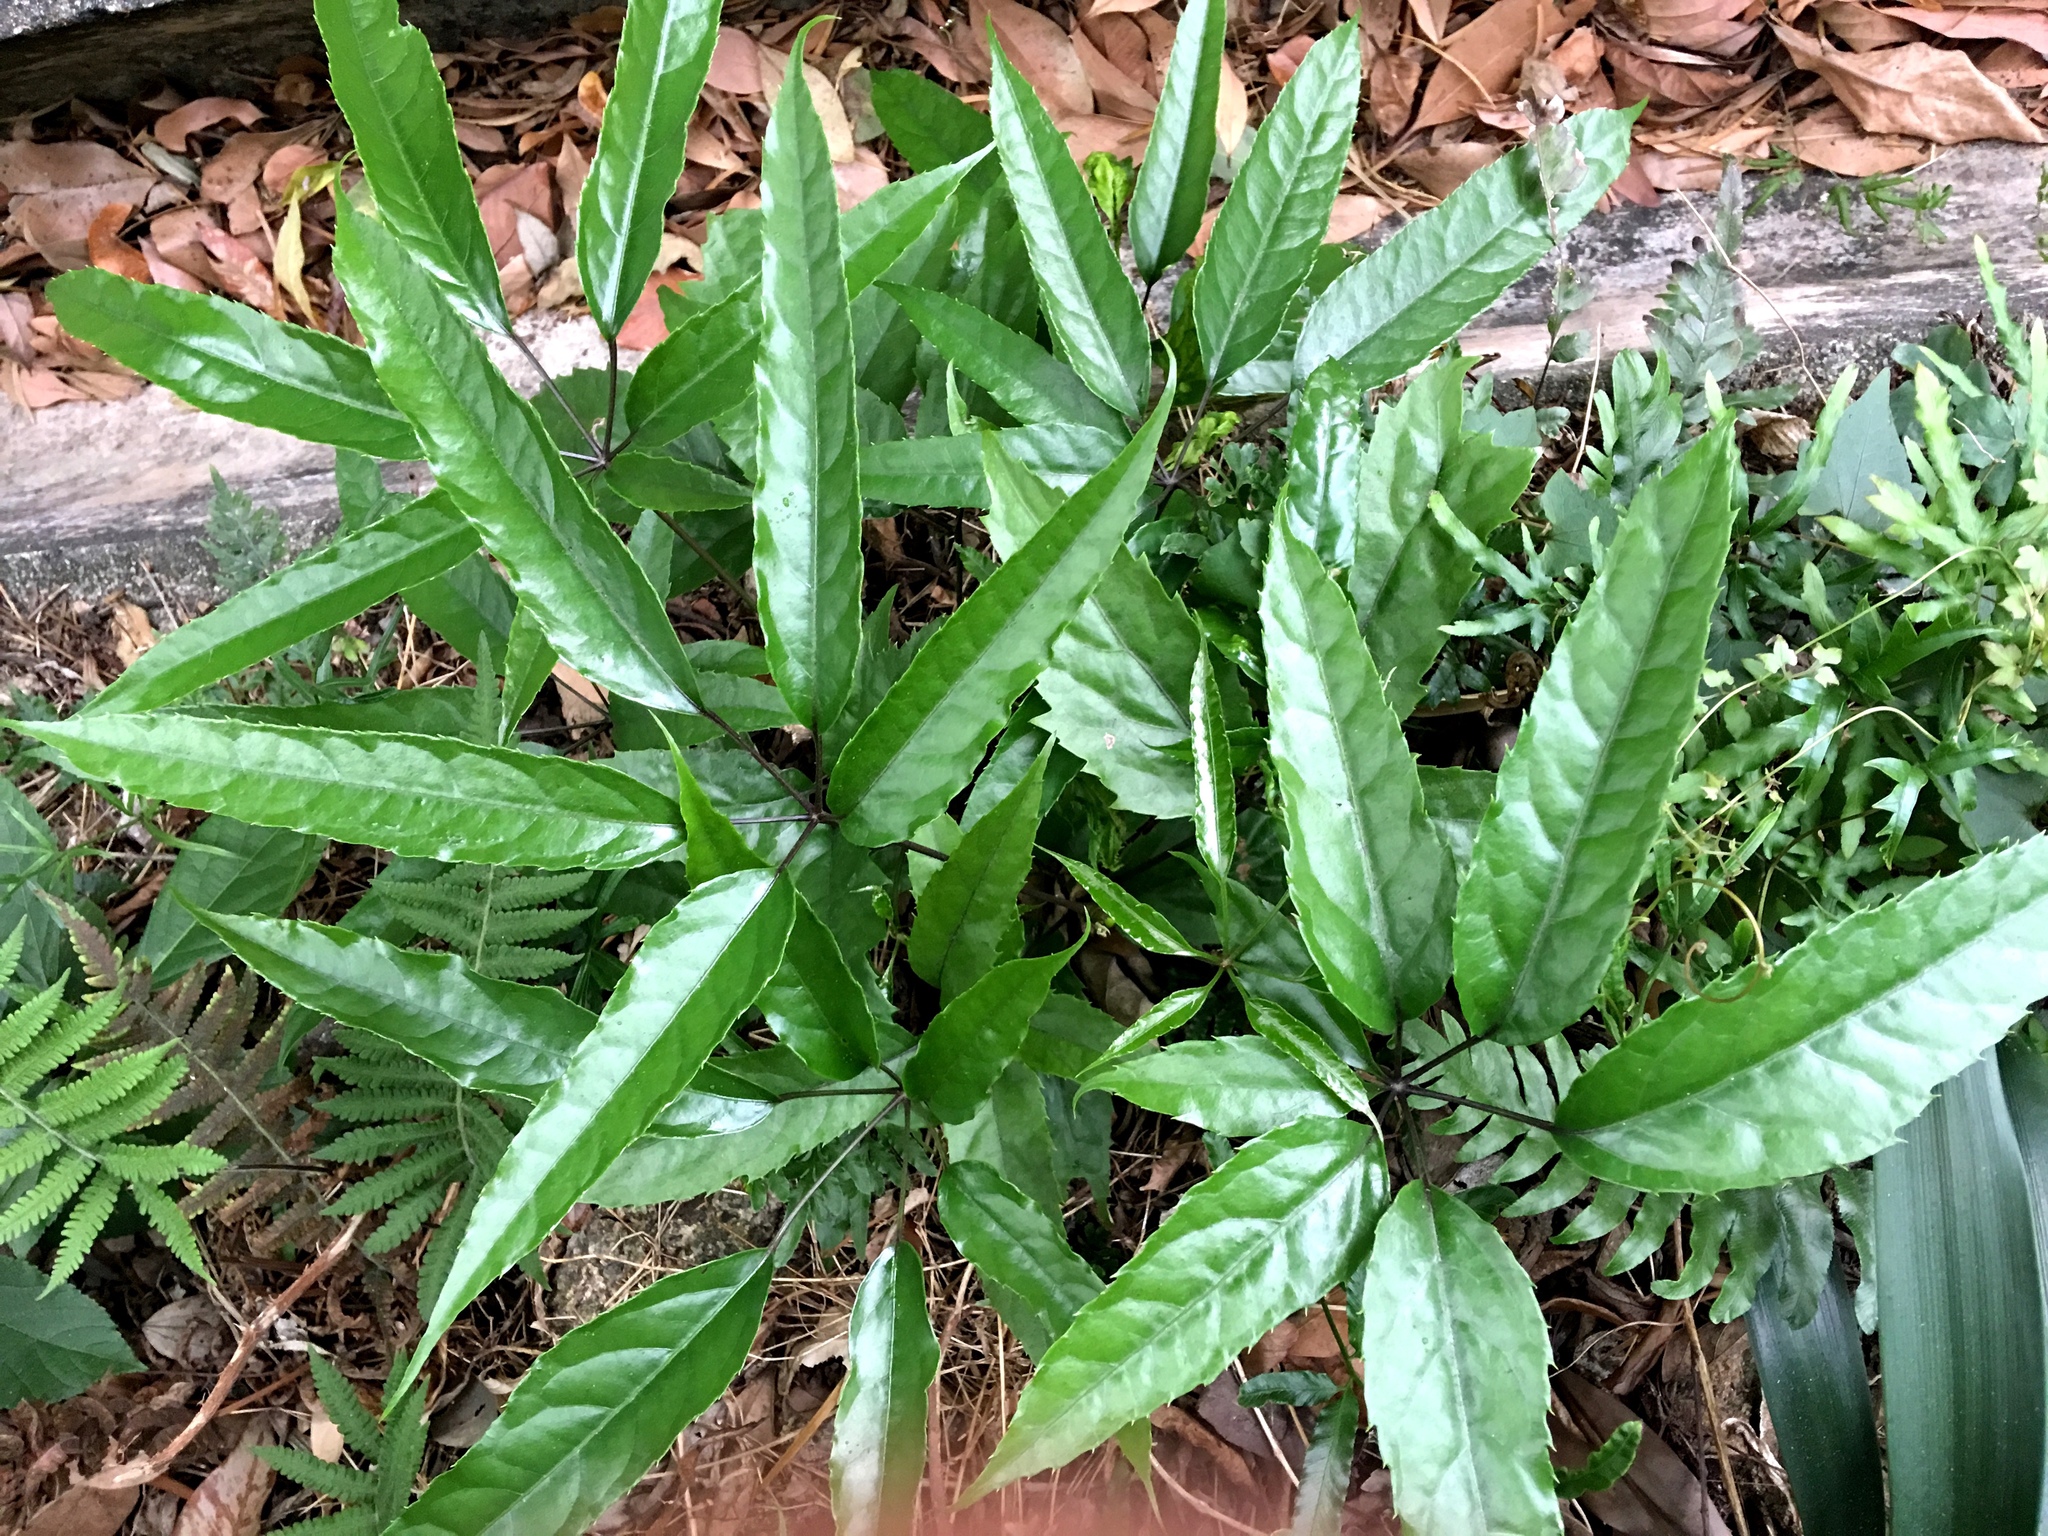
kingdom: Plantae
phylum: Tracheophyta
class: Magnoliopsida
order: Apiales
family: Araliaceae
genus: Heptapleurum
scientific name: Heptapleurum heptaphyllum
